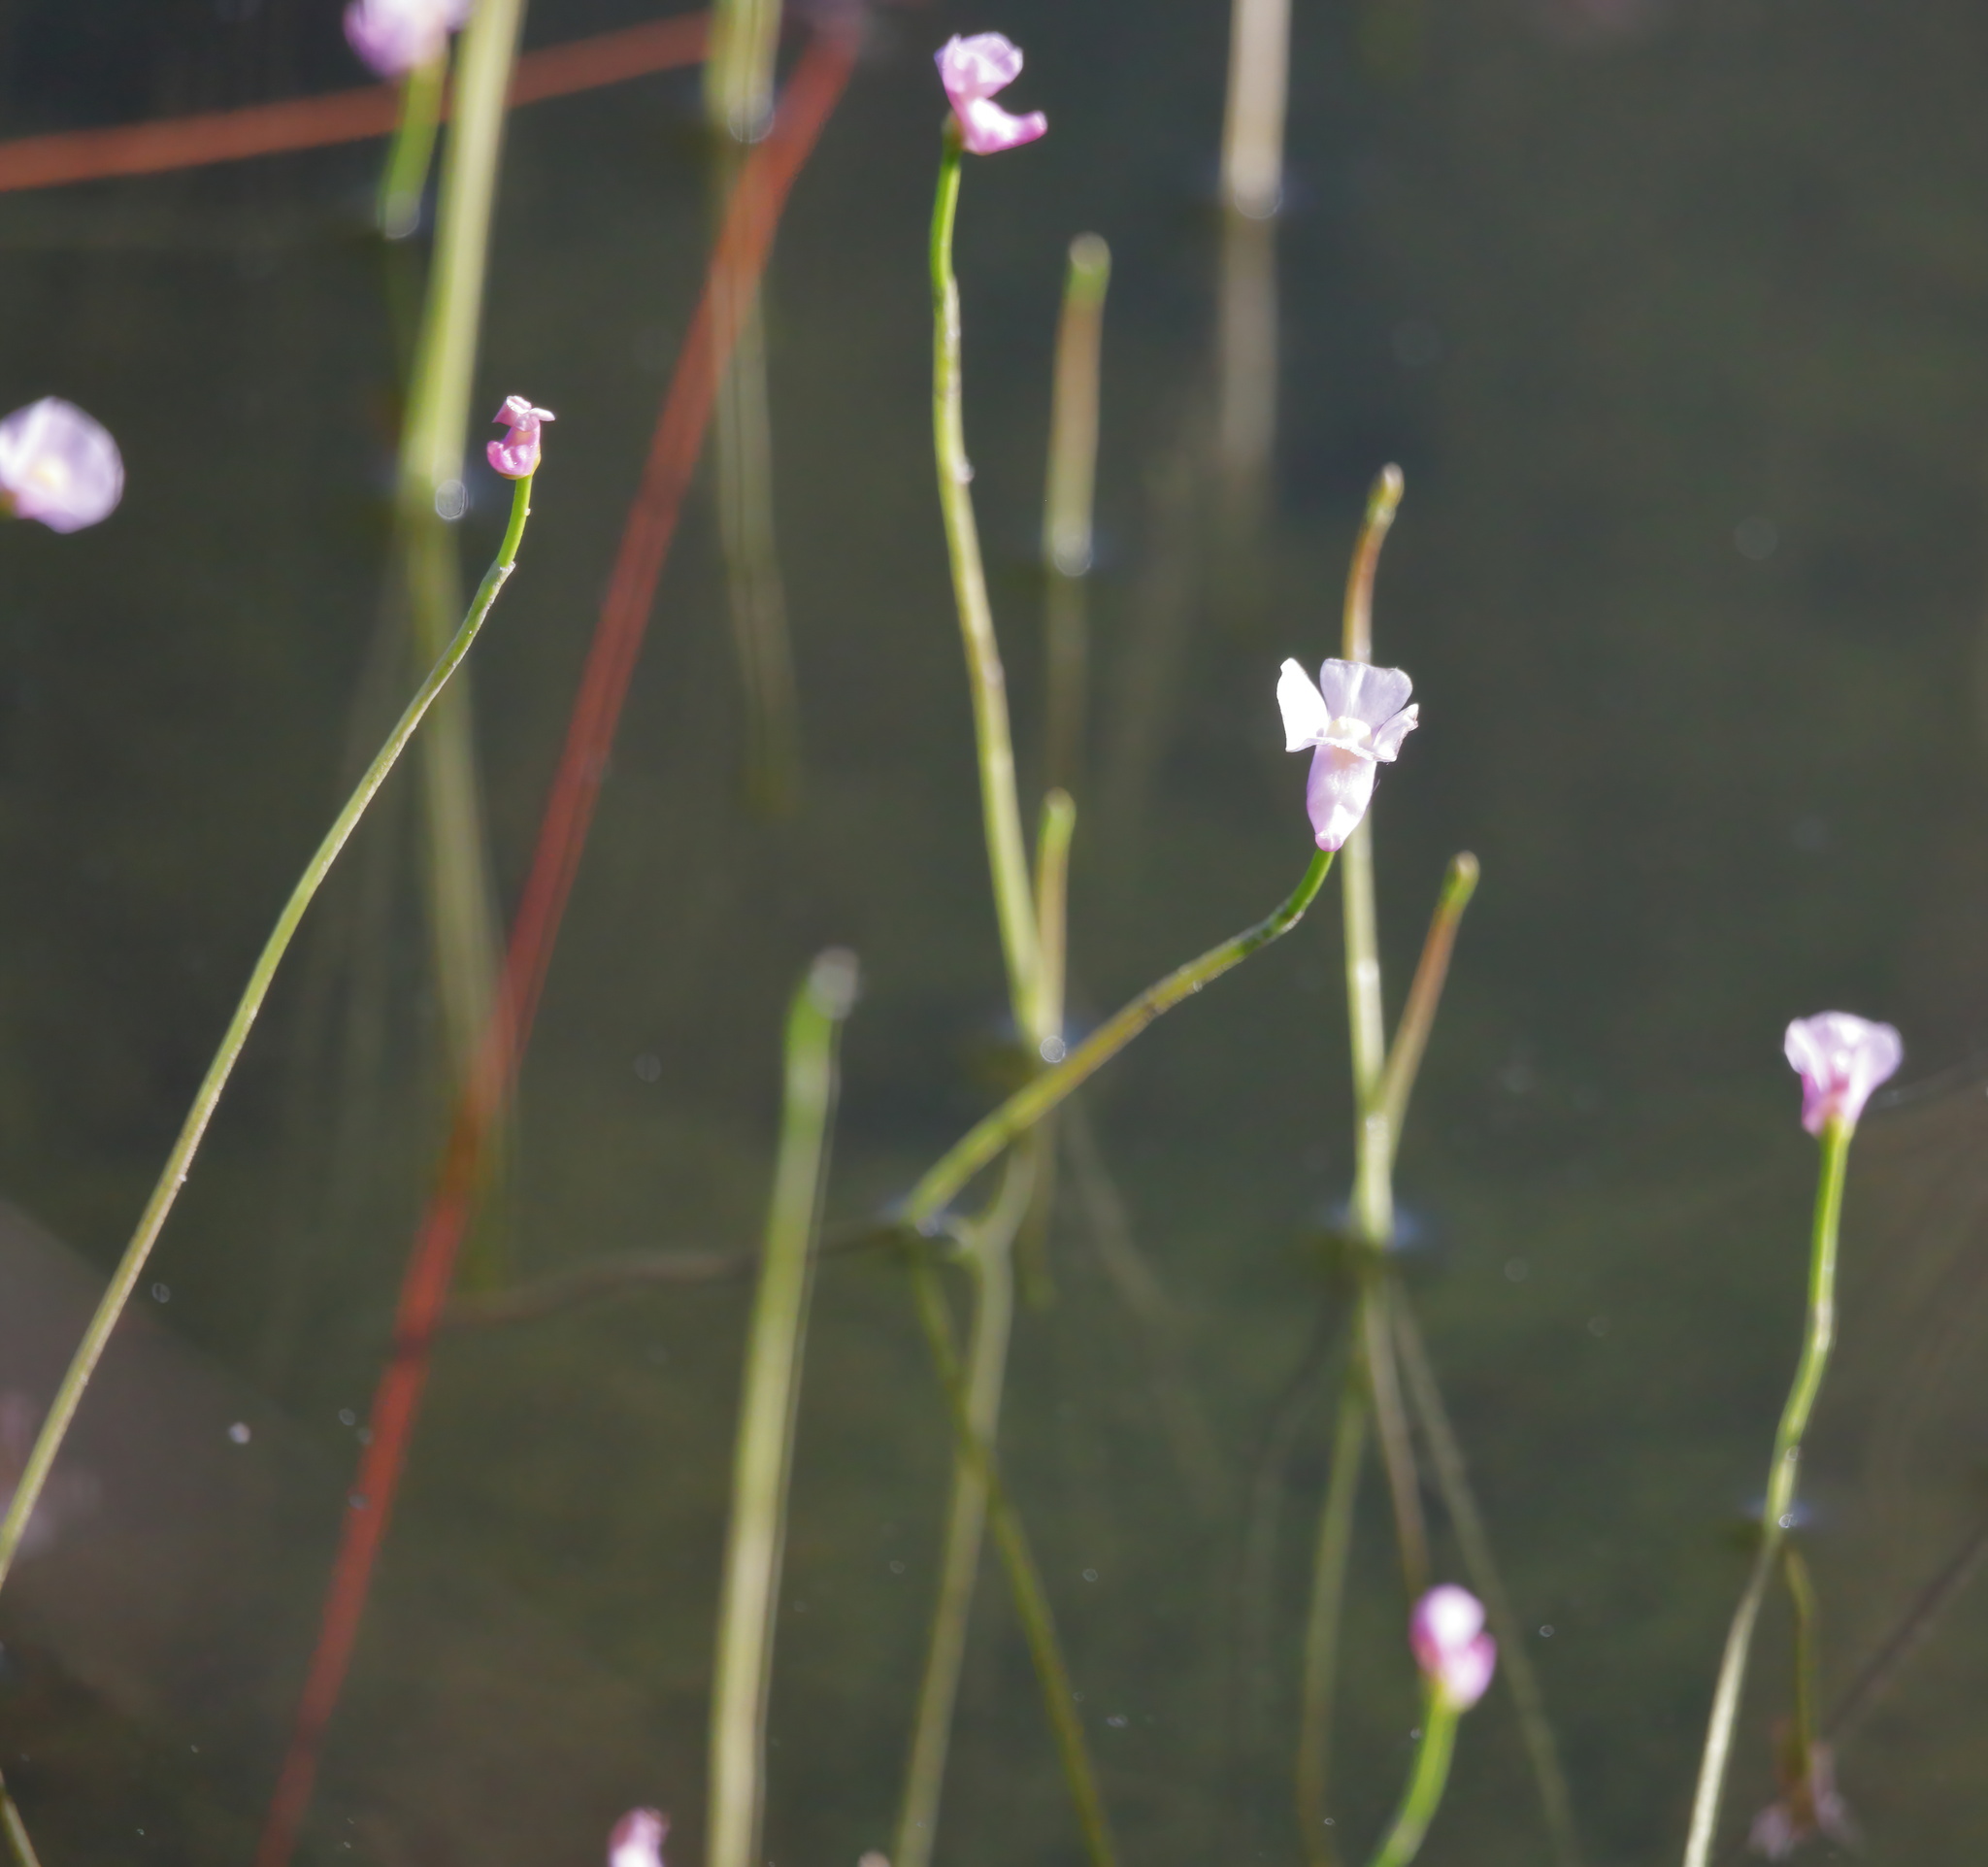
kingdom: Plantae
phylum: Tracheophyta
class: Magnoliopsida
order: Lamiales
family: Lentibulariaceae
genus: Utricularia
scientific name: Utricularia resupinata
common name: Northeastern bladderwort
